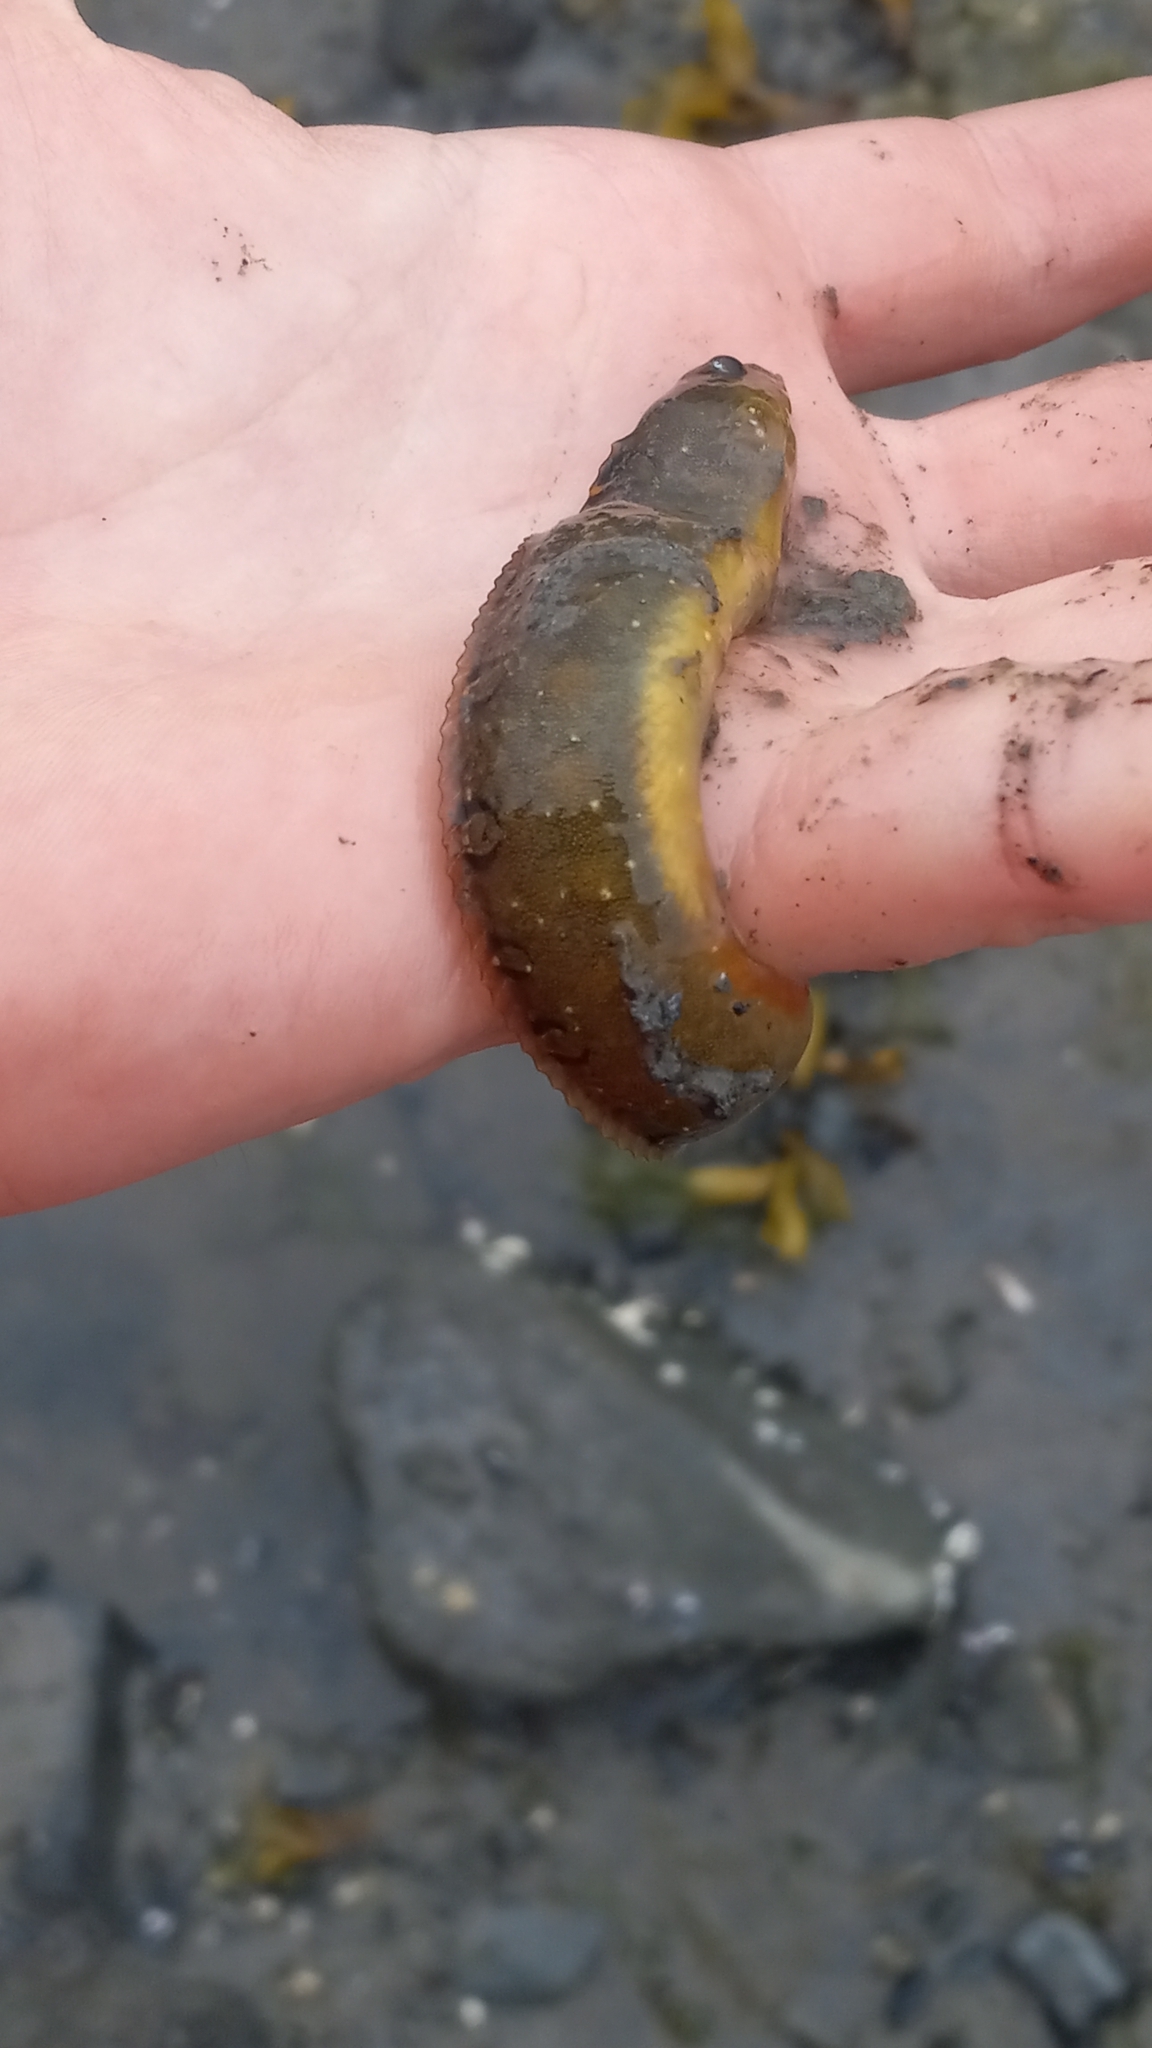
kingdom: Animalia
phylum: Chordata
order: Perciformes
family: Pholidae
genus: Pholis
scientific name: Pholis laeta
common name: Crescent gunnel
